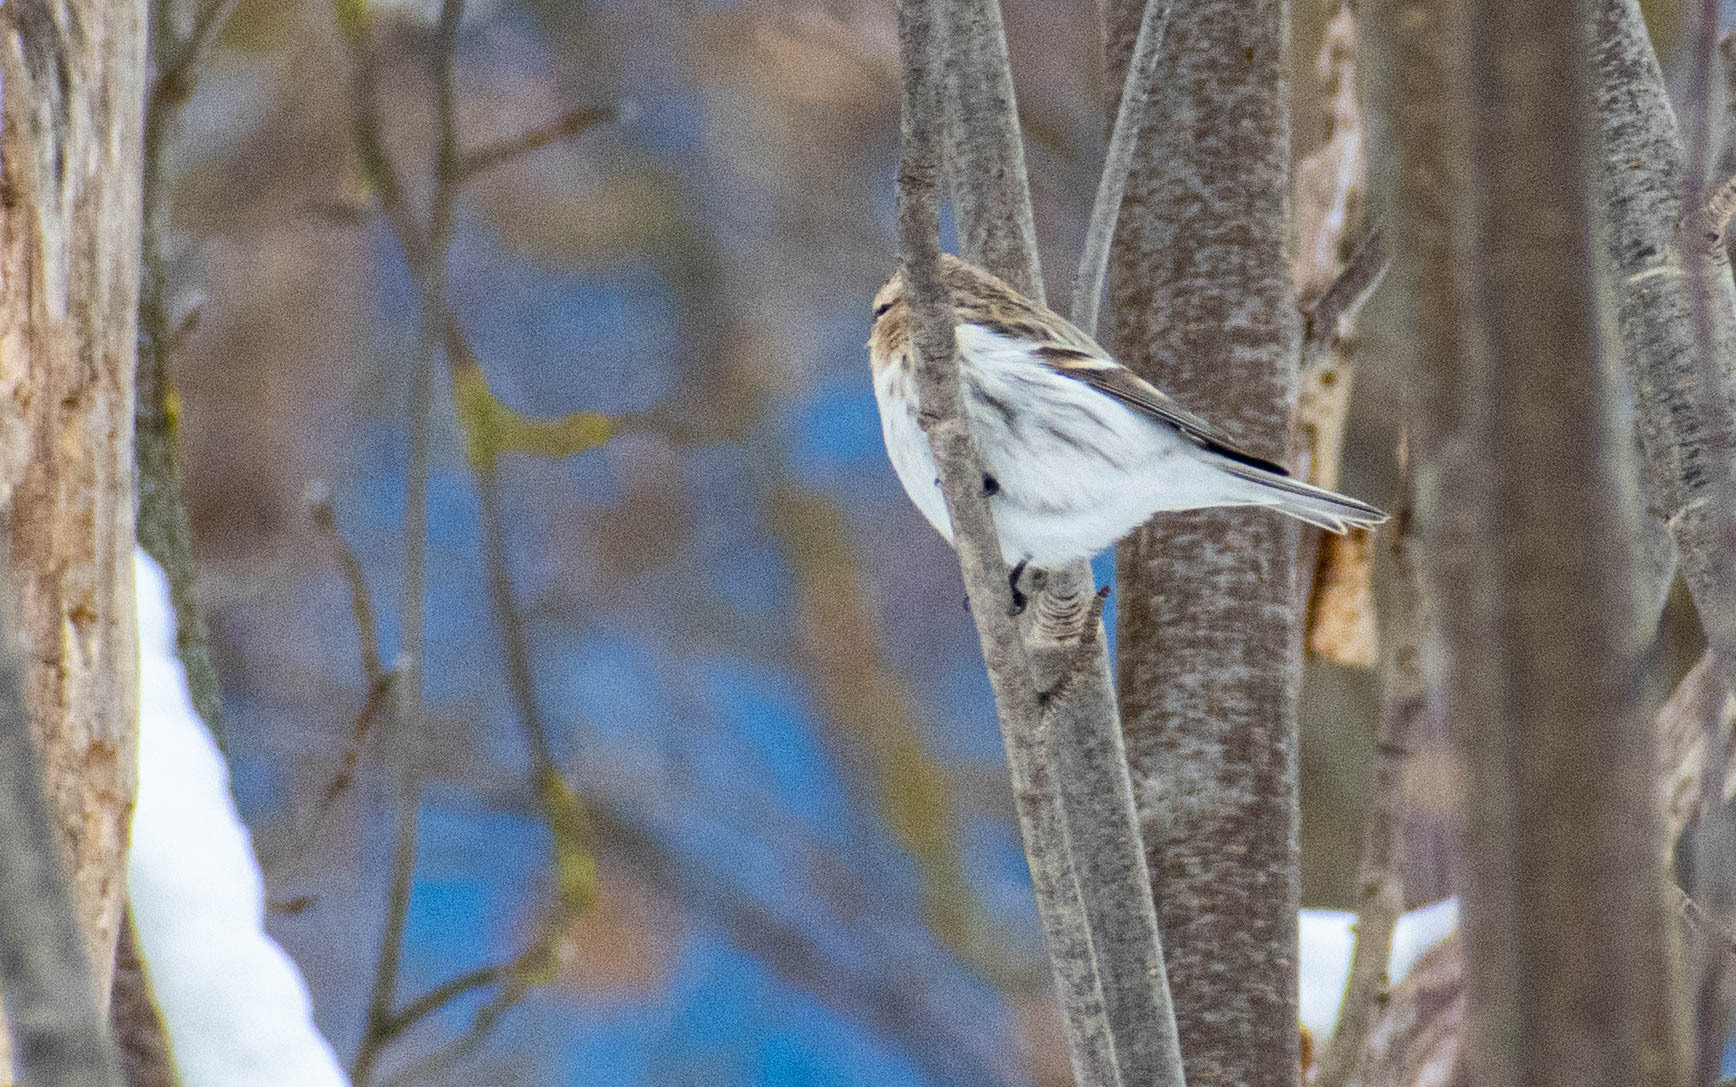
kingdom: Animalia
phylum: Chordata
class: Aves
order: Passeriformes
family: Fringillidae
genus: Acanthis
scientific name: Acanthis hornemanni
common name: Arctic redpoll
